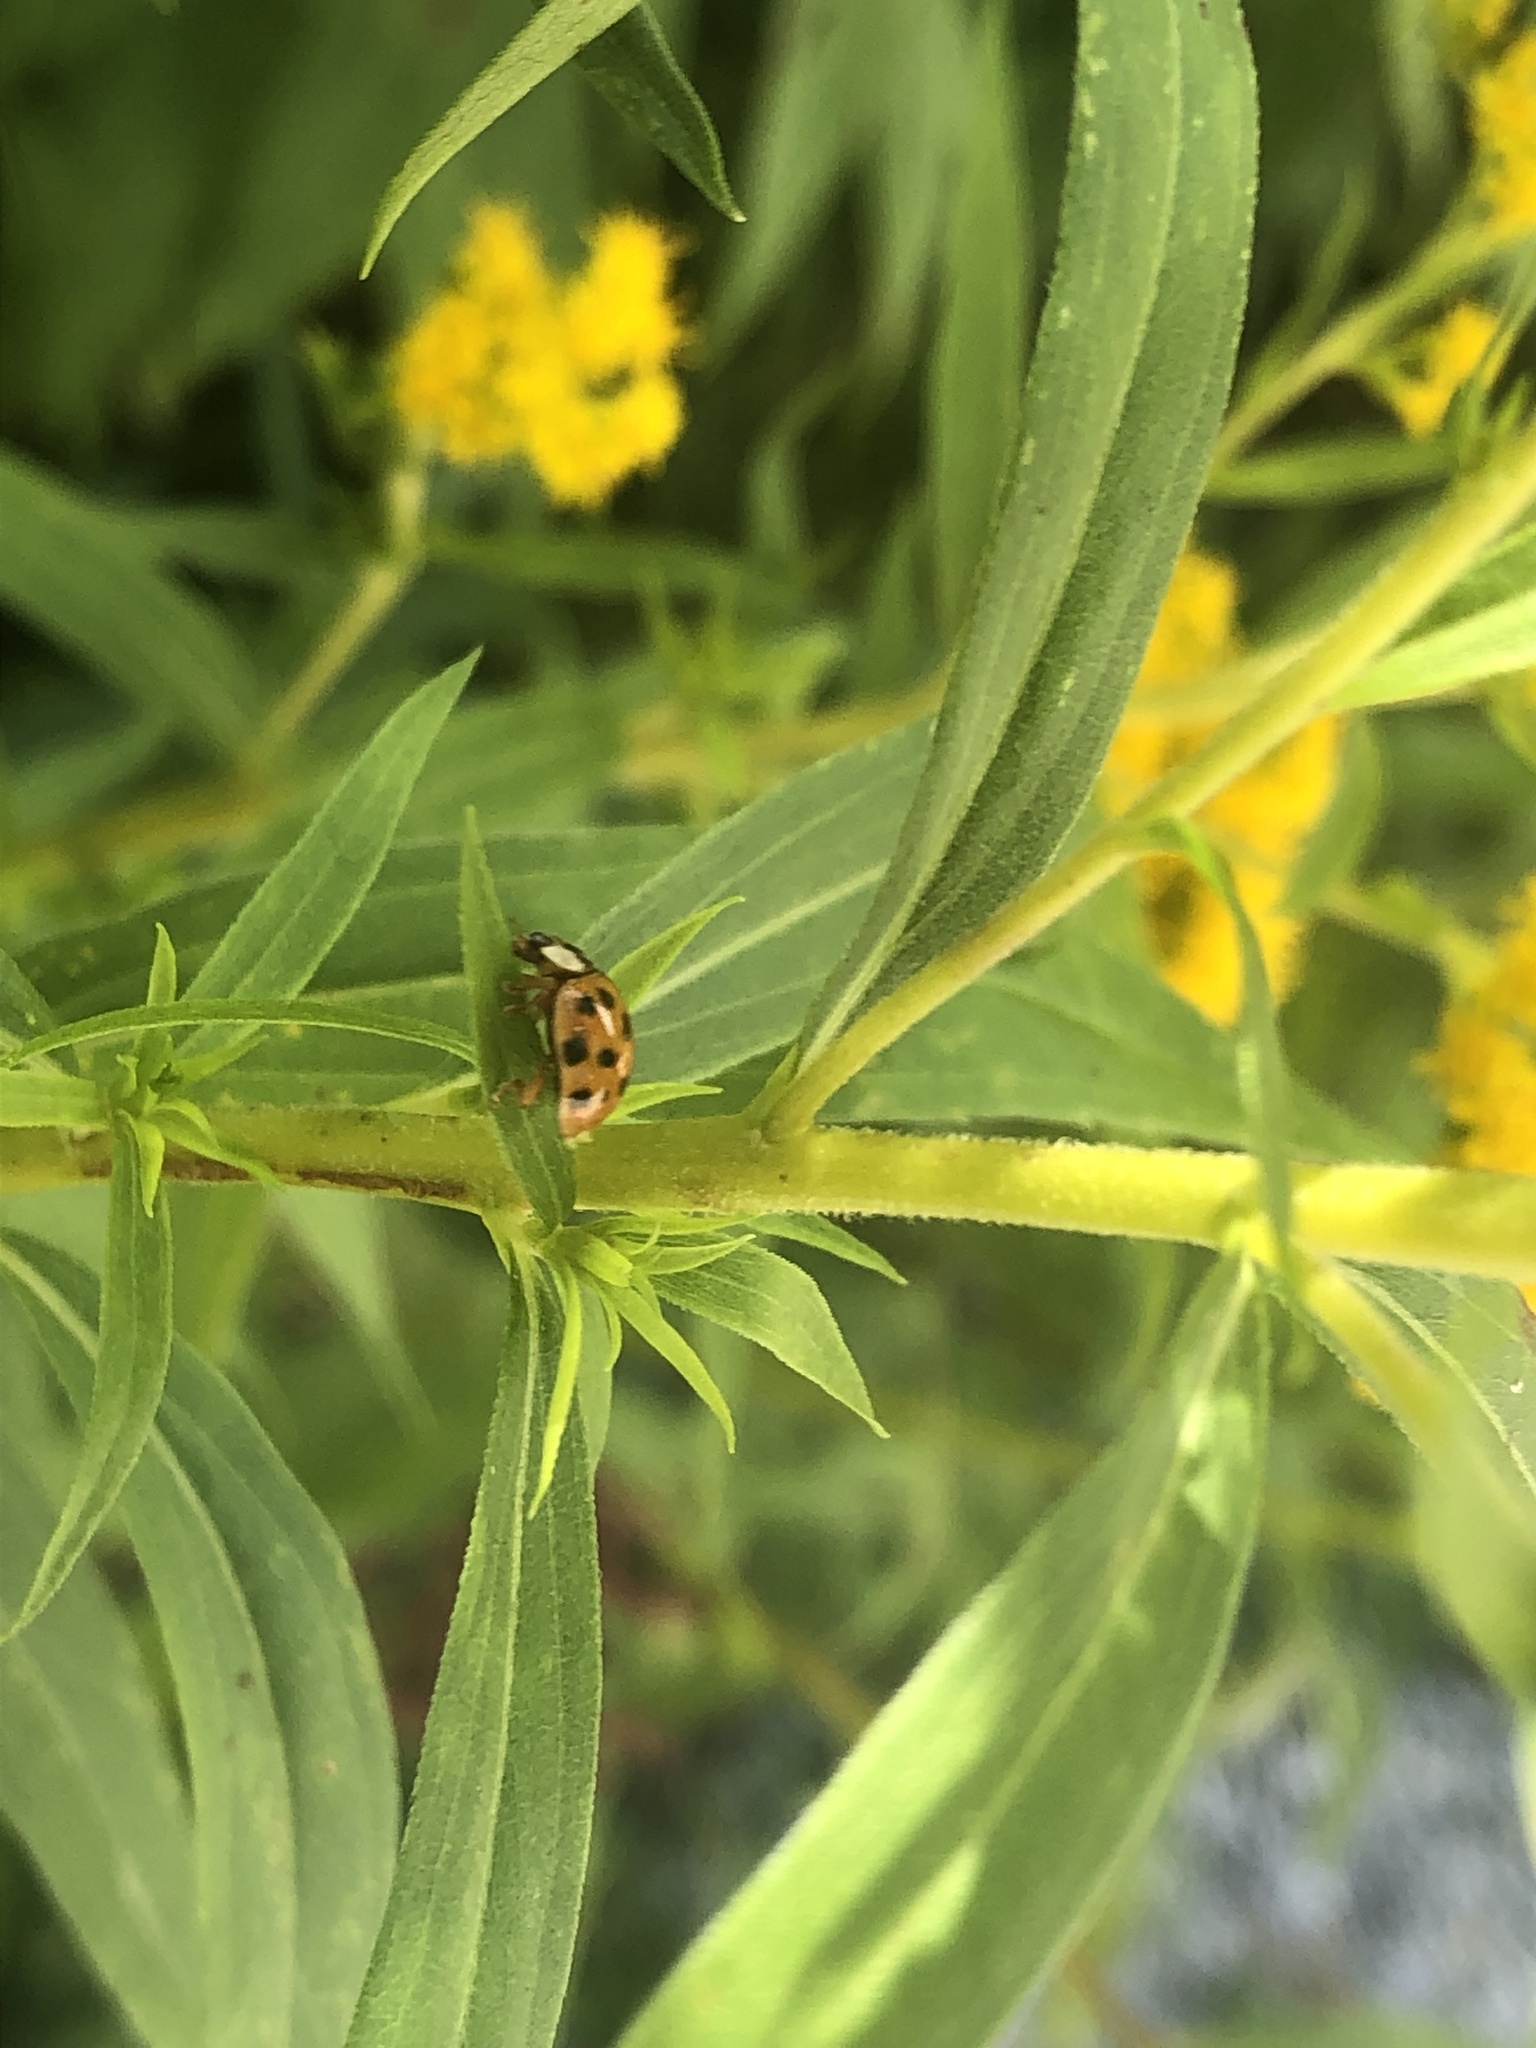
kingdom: Animalia
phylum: Arthropoda
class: Insecta
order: Coleoptera
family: Coccinellidae
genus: Harmonia
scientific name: Harmonia axyridis
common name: Harlequin ladybird
